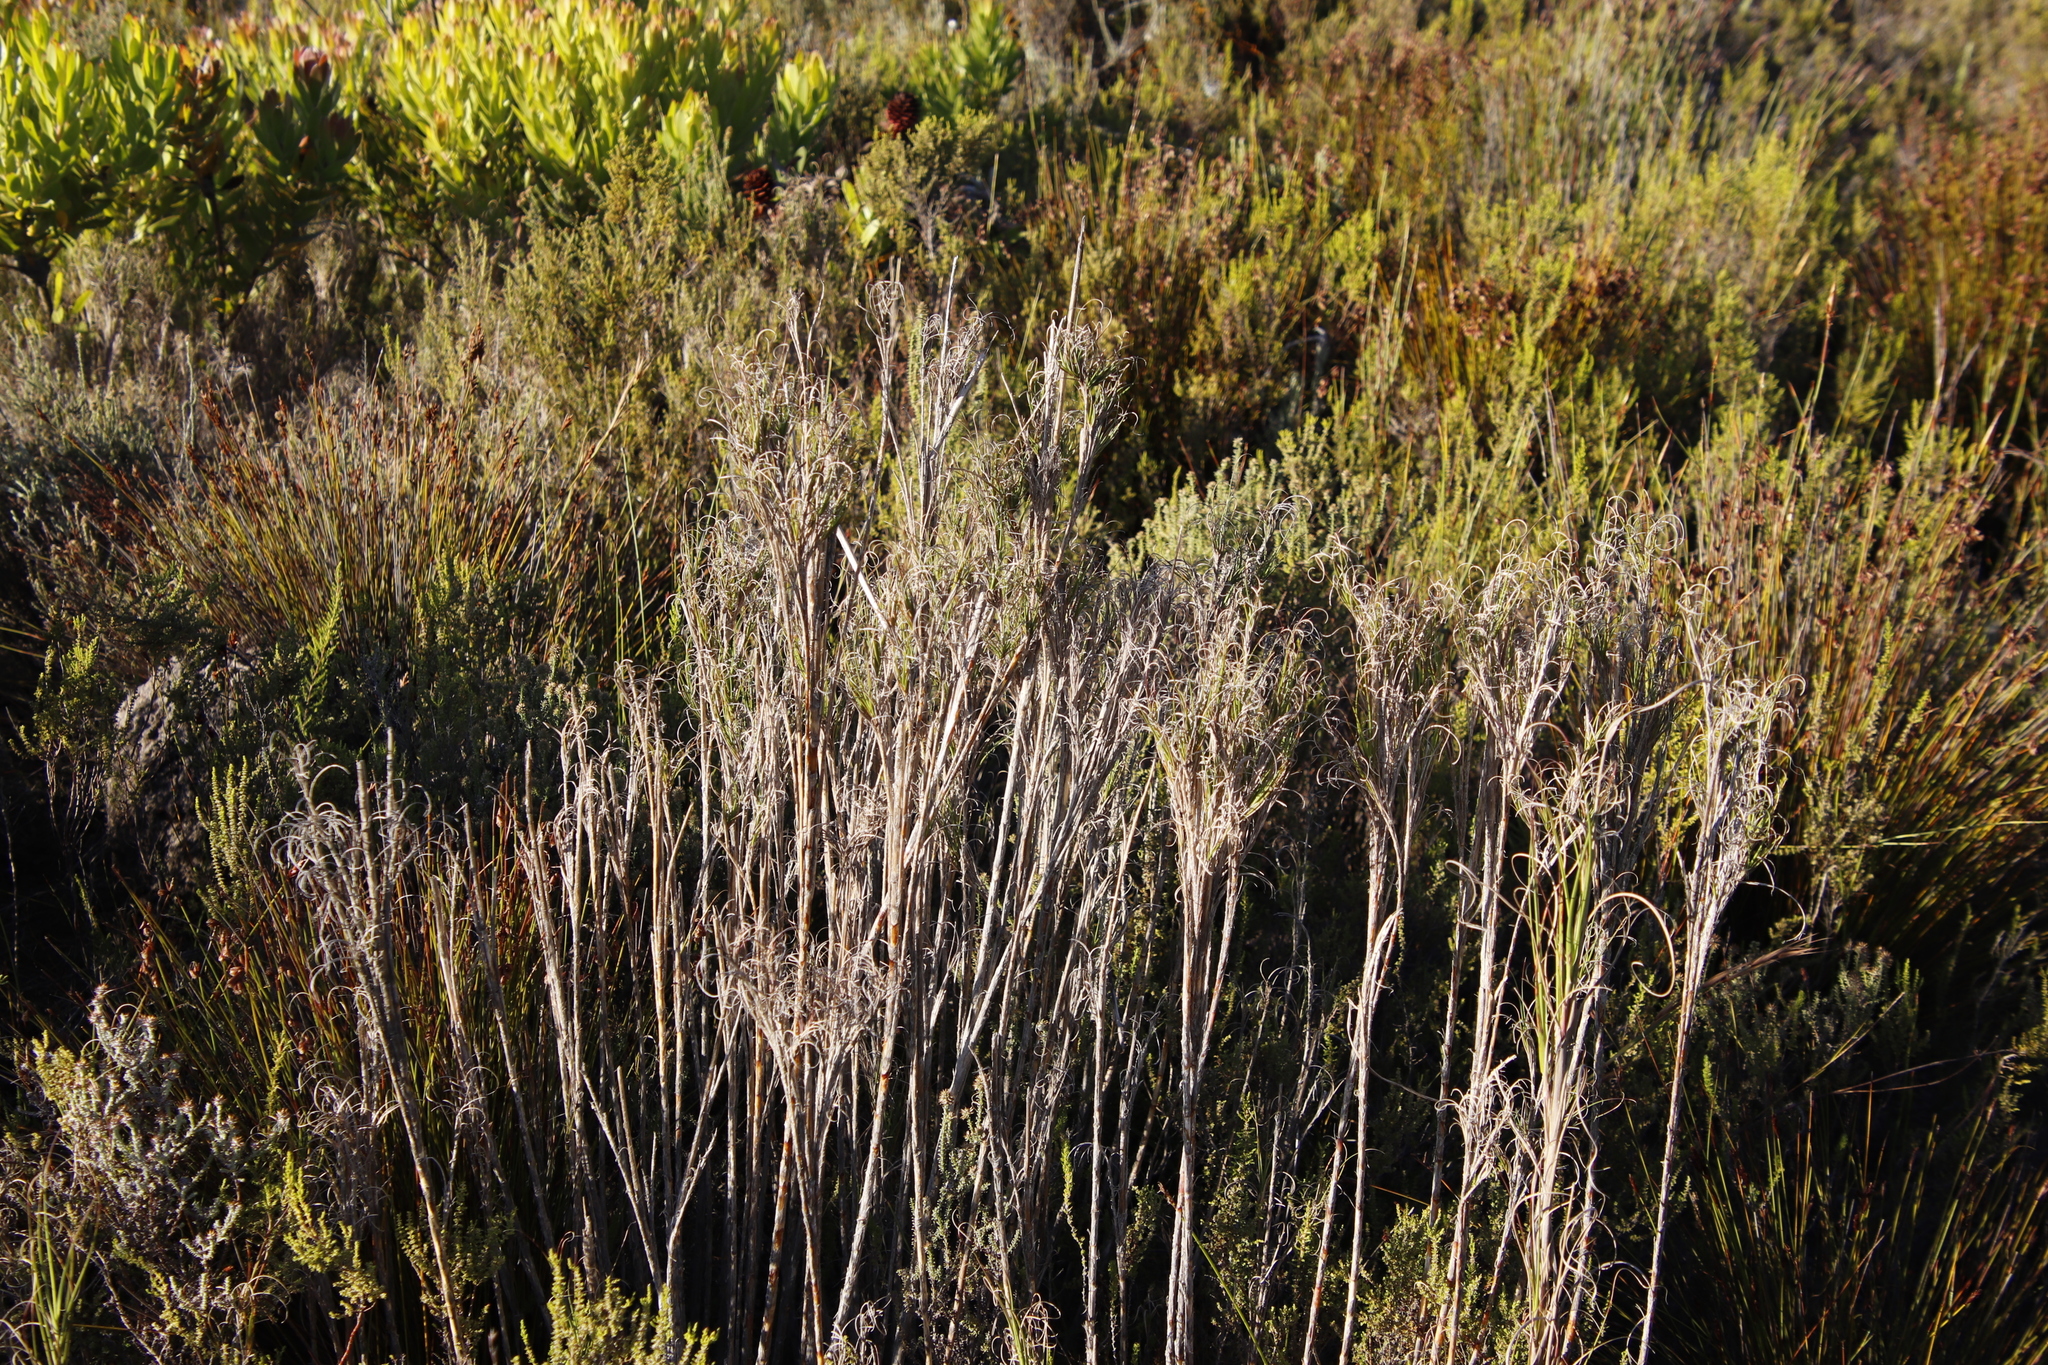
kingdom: Plantae
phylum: Tracheophyta
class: Liliopsida
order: Poales
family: Poaceae
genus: Pseudopentameris
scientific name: Pseudopentameris macrantha
